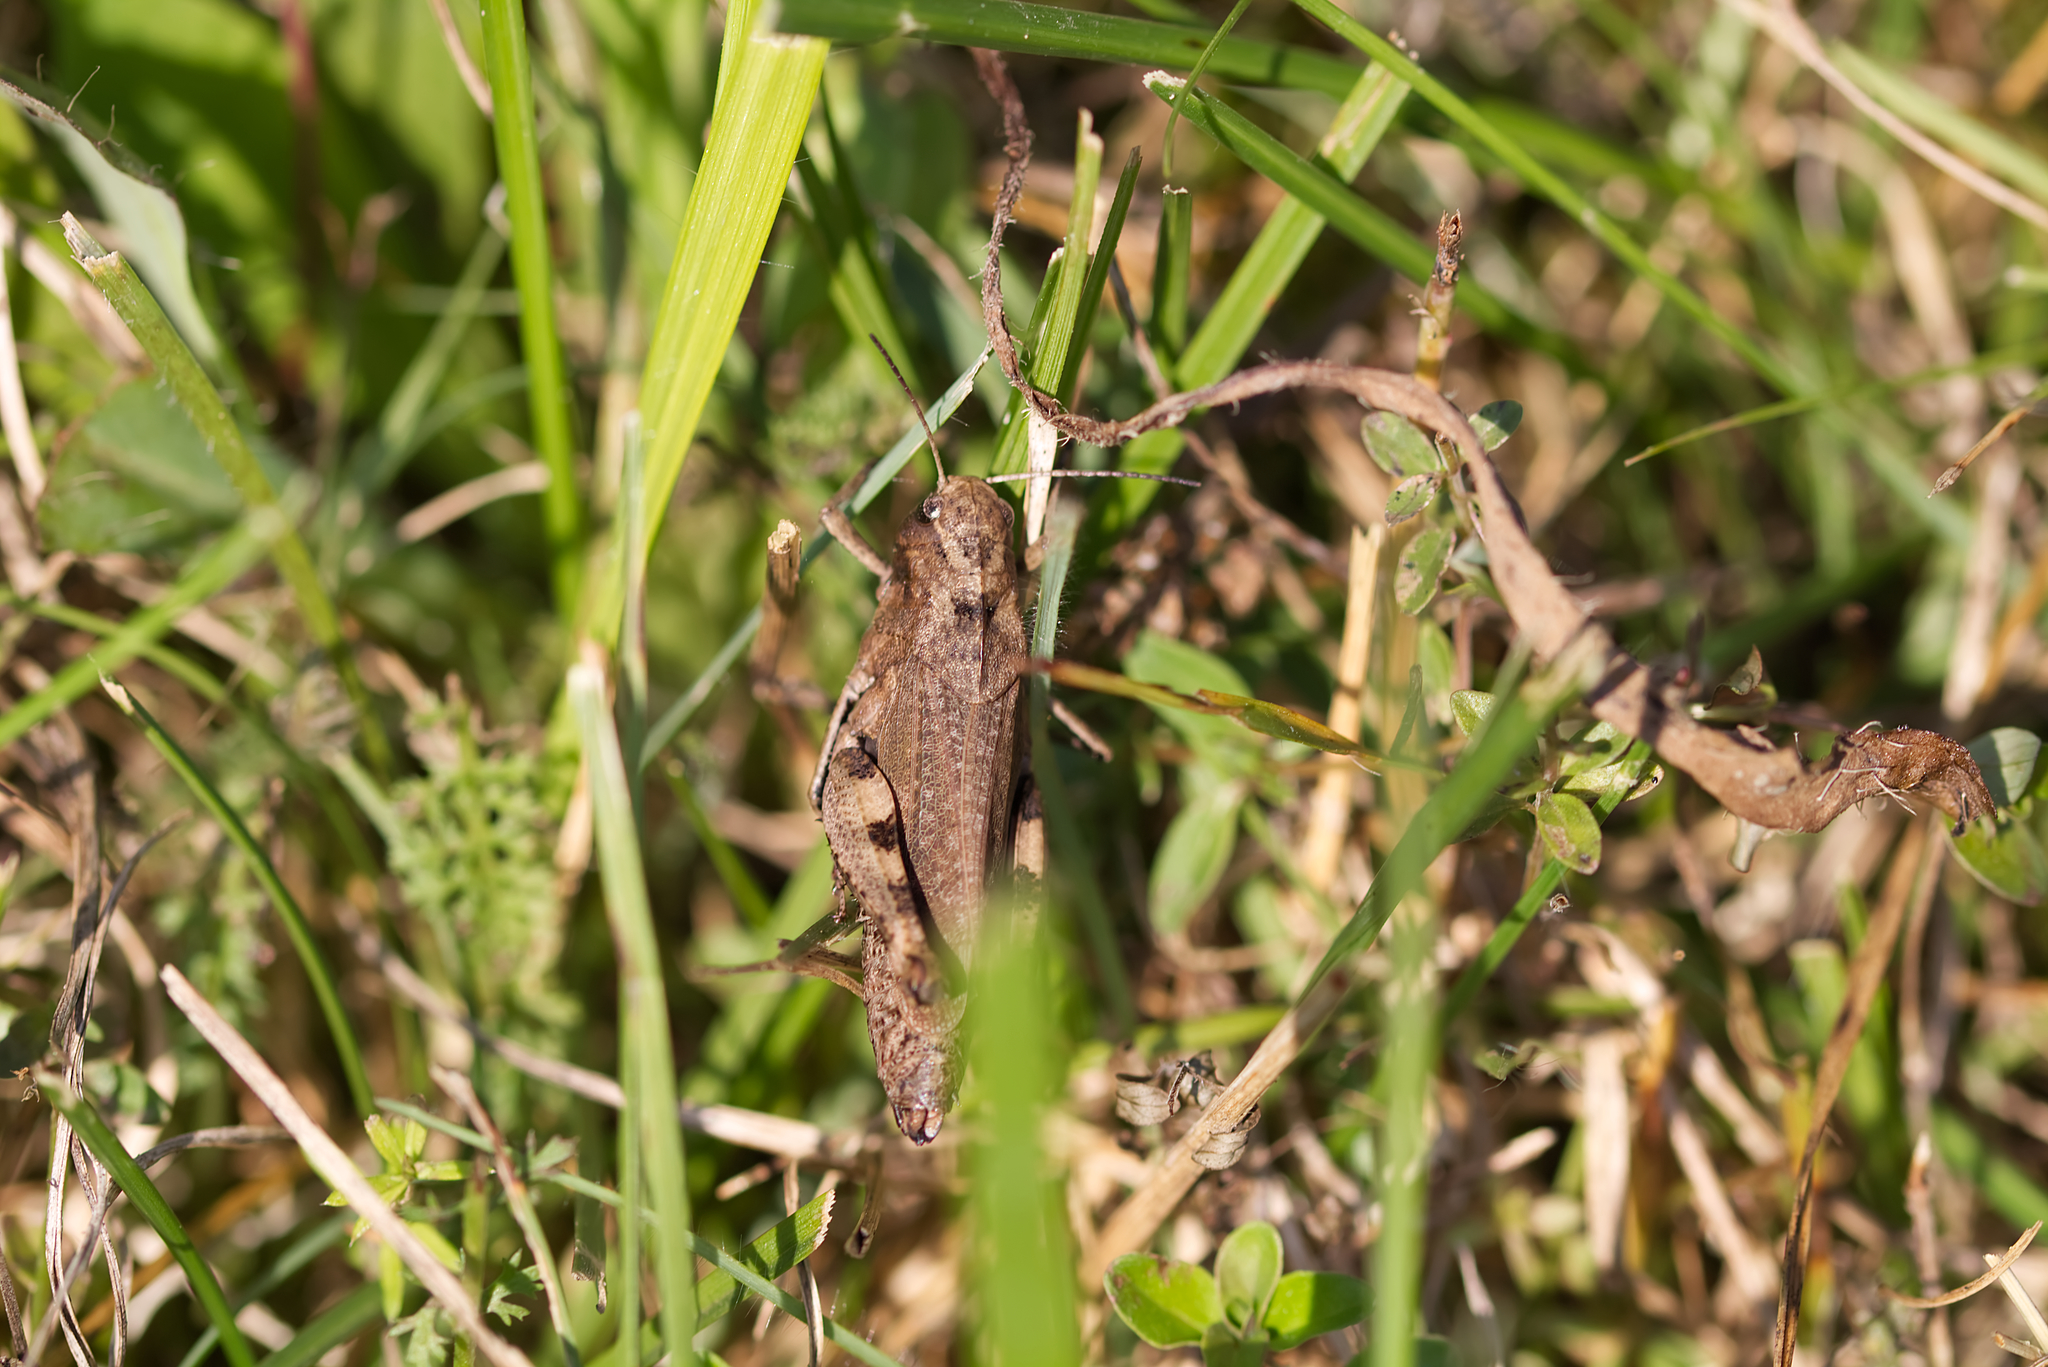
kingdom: Animalia
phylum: Arthropoda
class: Insecta
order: Orthoptera
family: Acrididae
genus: Psophus
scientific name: Psophus stridulus
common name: Rattle grasshopper
